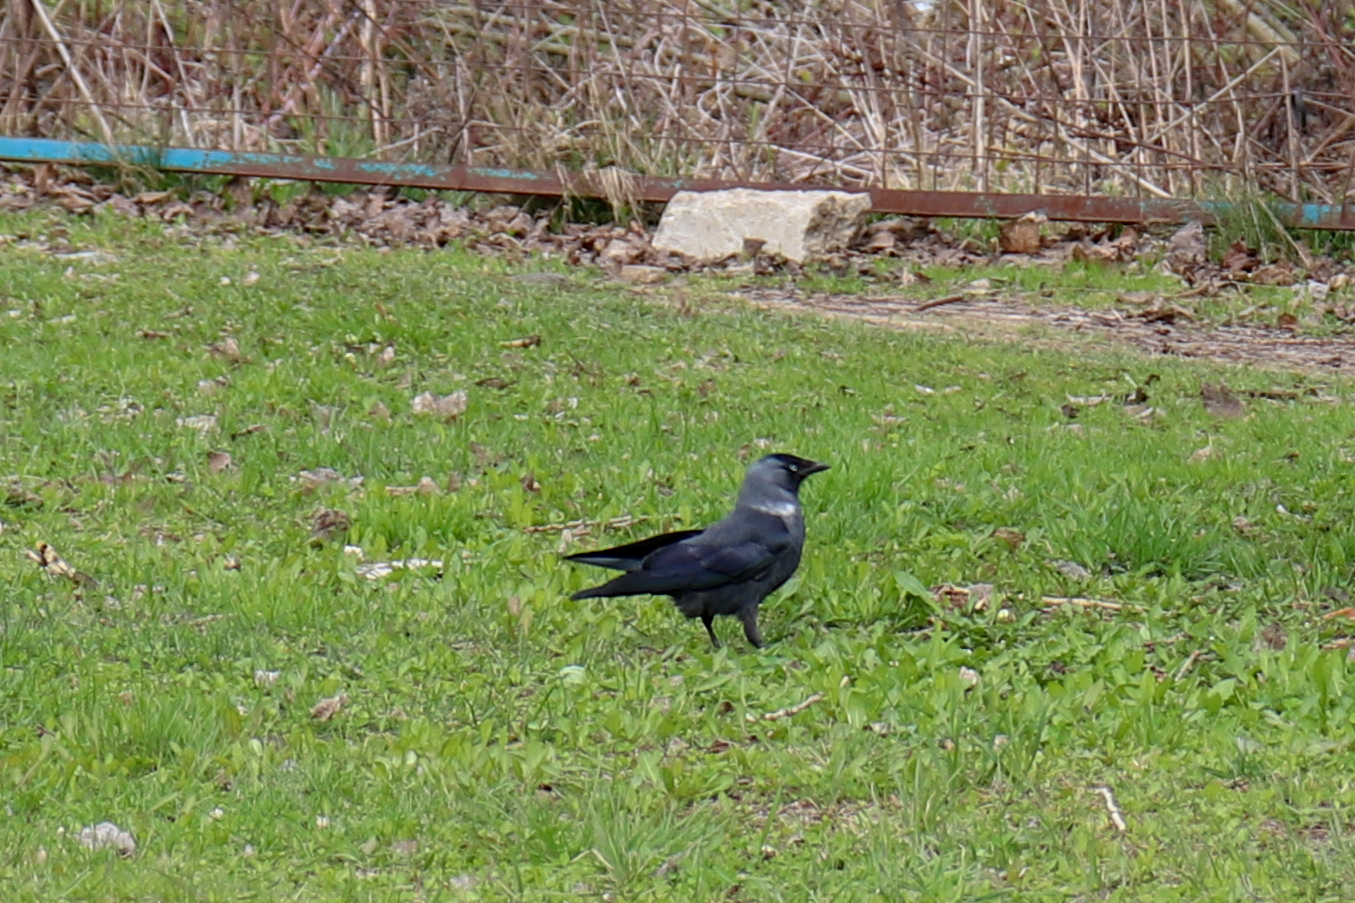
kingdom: Animalia
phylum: Chordata
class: Aves
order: Passeriformes
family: Corvidae
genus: Coloeus
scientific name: Coloeus monedula
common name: Western jackdaw
